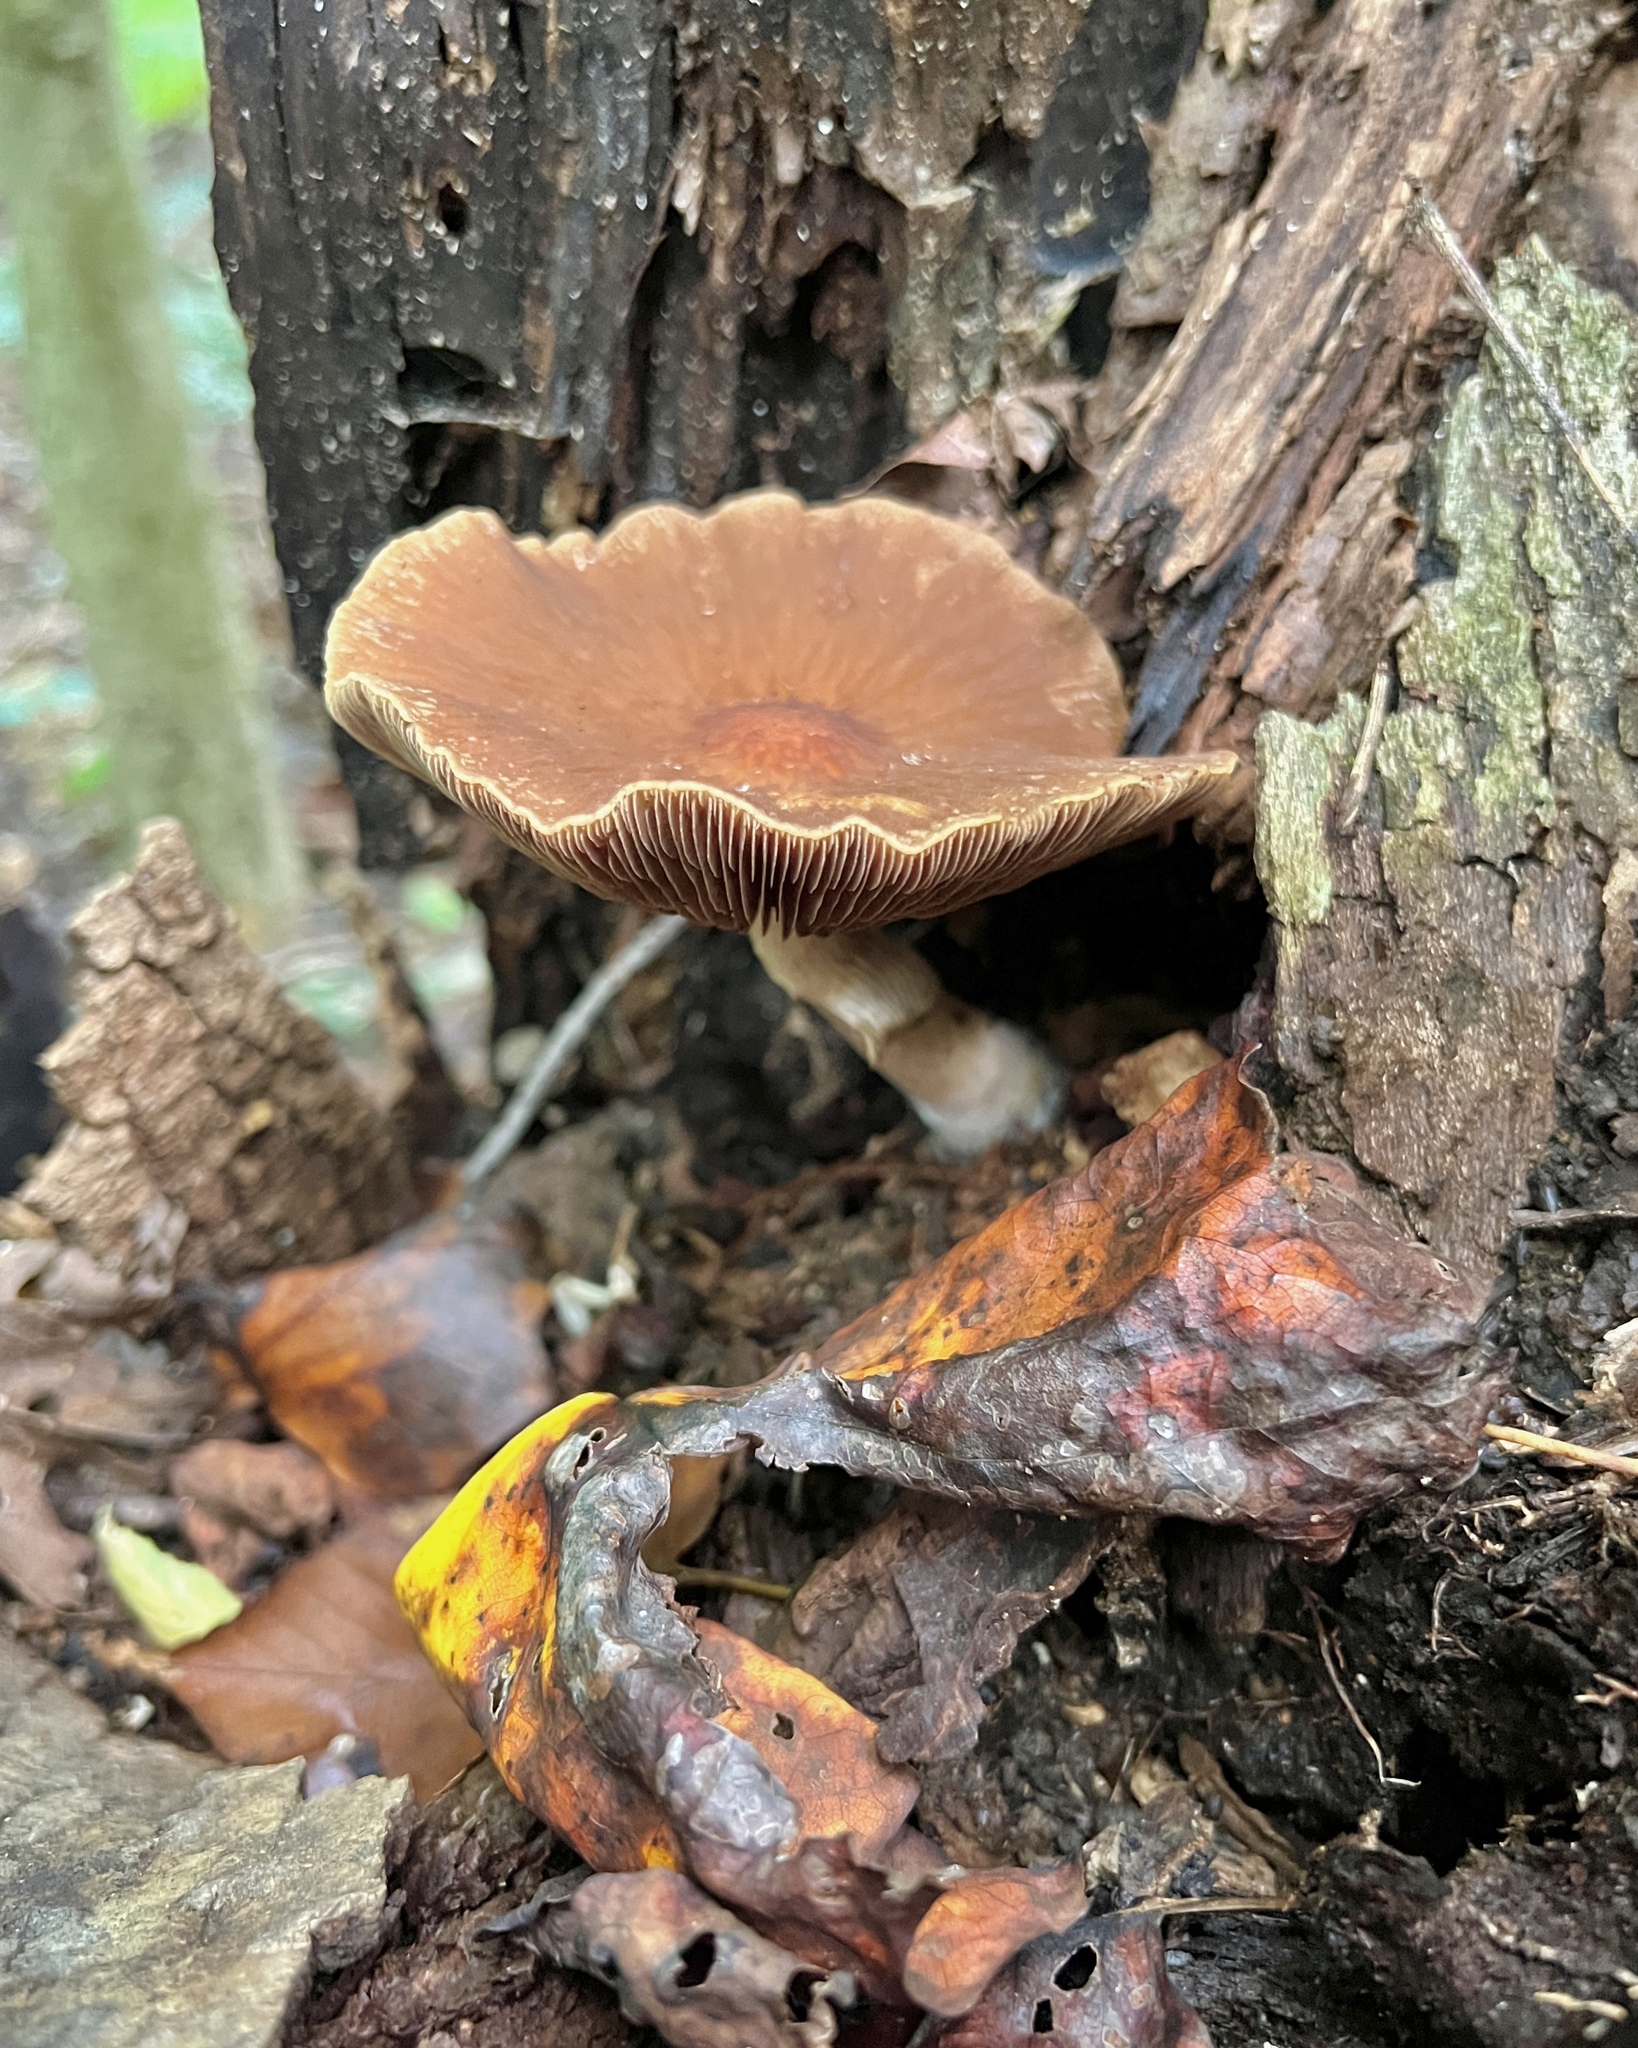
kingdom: Fungi
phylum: Basidiomycota
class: Agaricomycetes
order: Agaricales
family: Psathyrellaceae
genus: Typhrasa
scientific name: Typhrasa gossypina
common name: Wrinkled psathyrella
